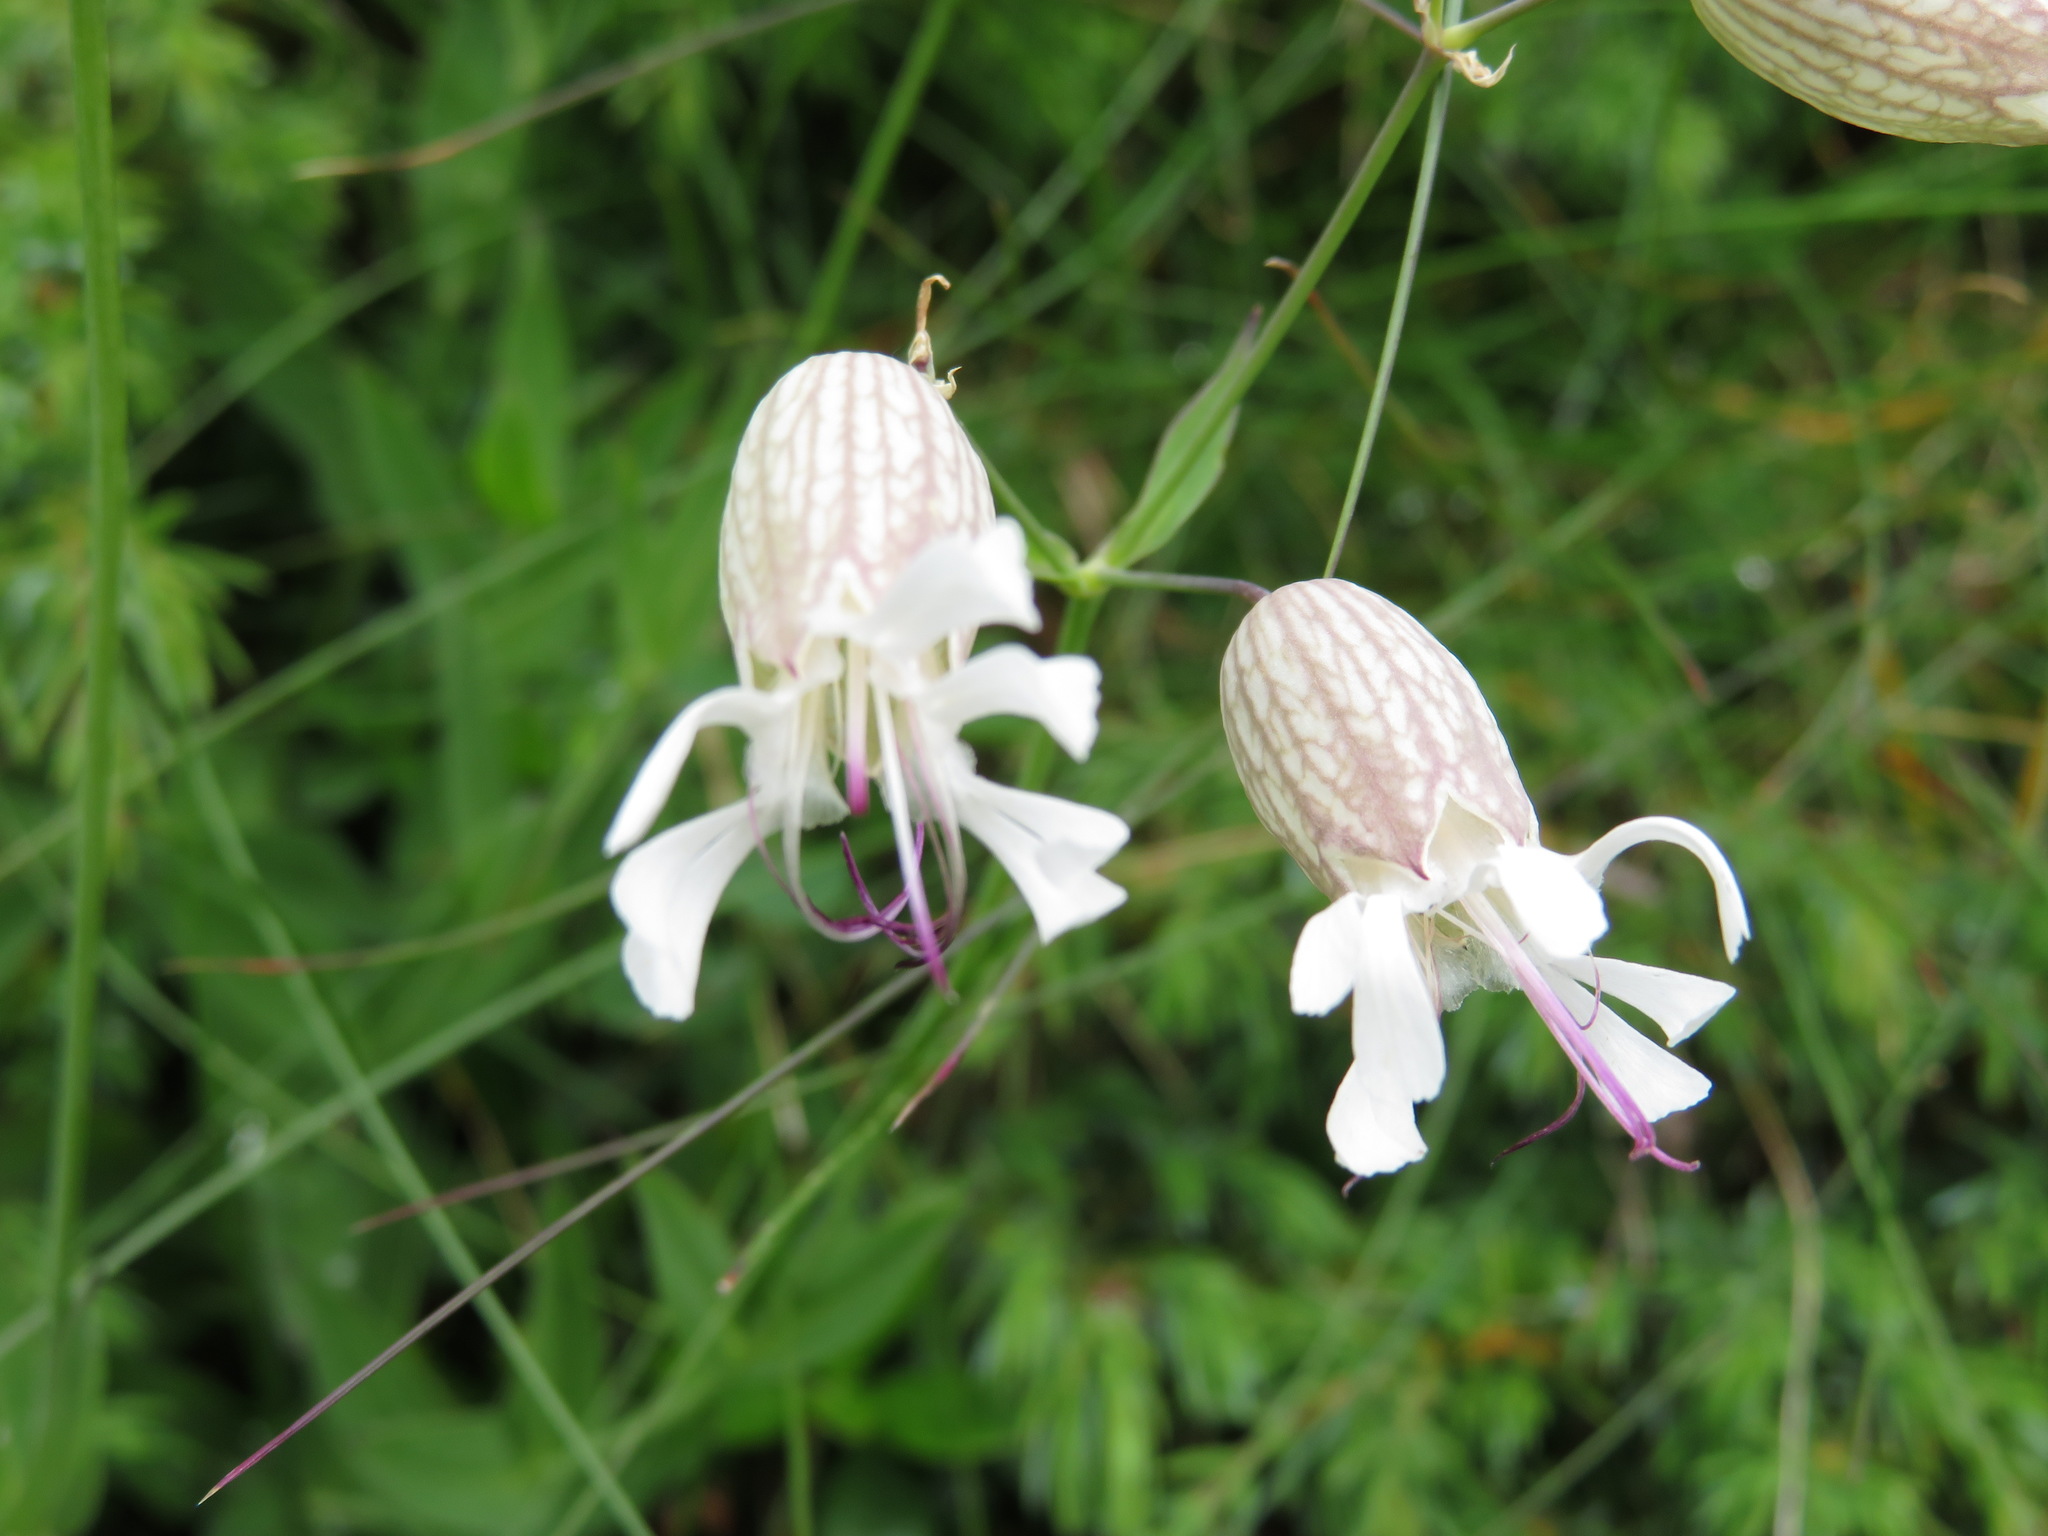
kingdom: Plantae
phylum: Tracheophyta
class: Magnoliopsida
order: Caryophyllales
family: Caryophyllaceae
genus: Silene
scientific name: Silene vulgaris
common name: Bladder campion
